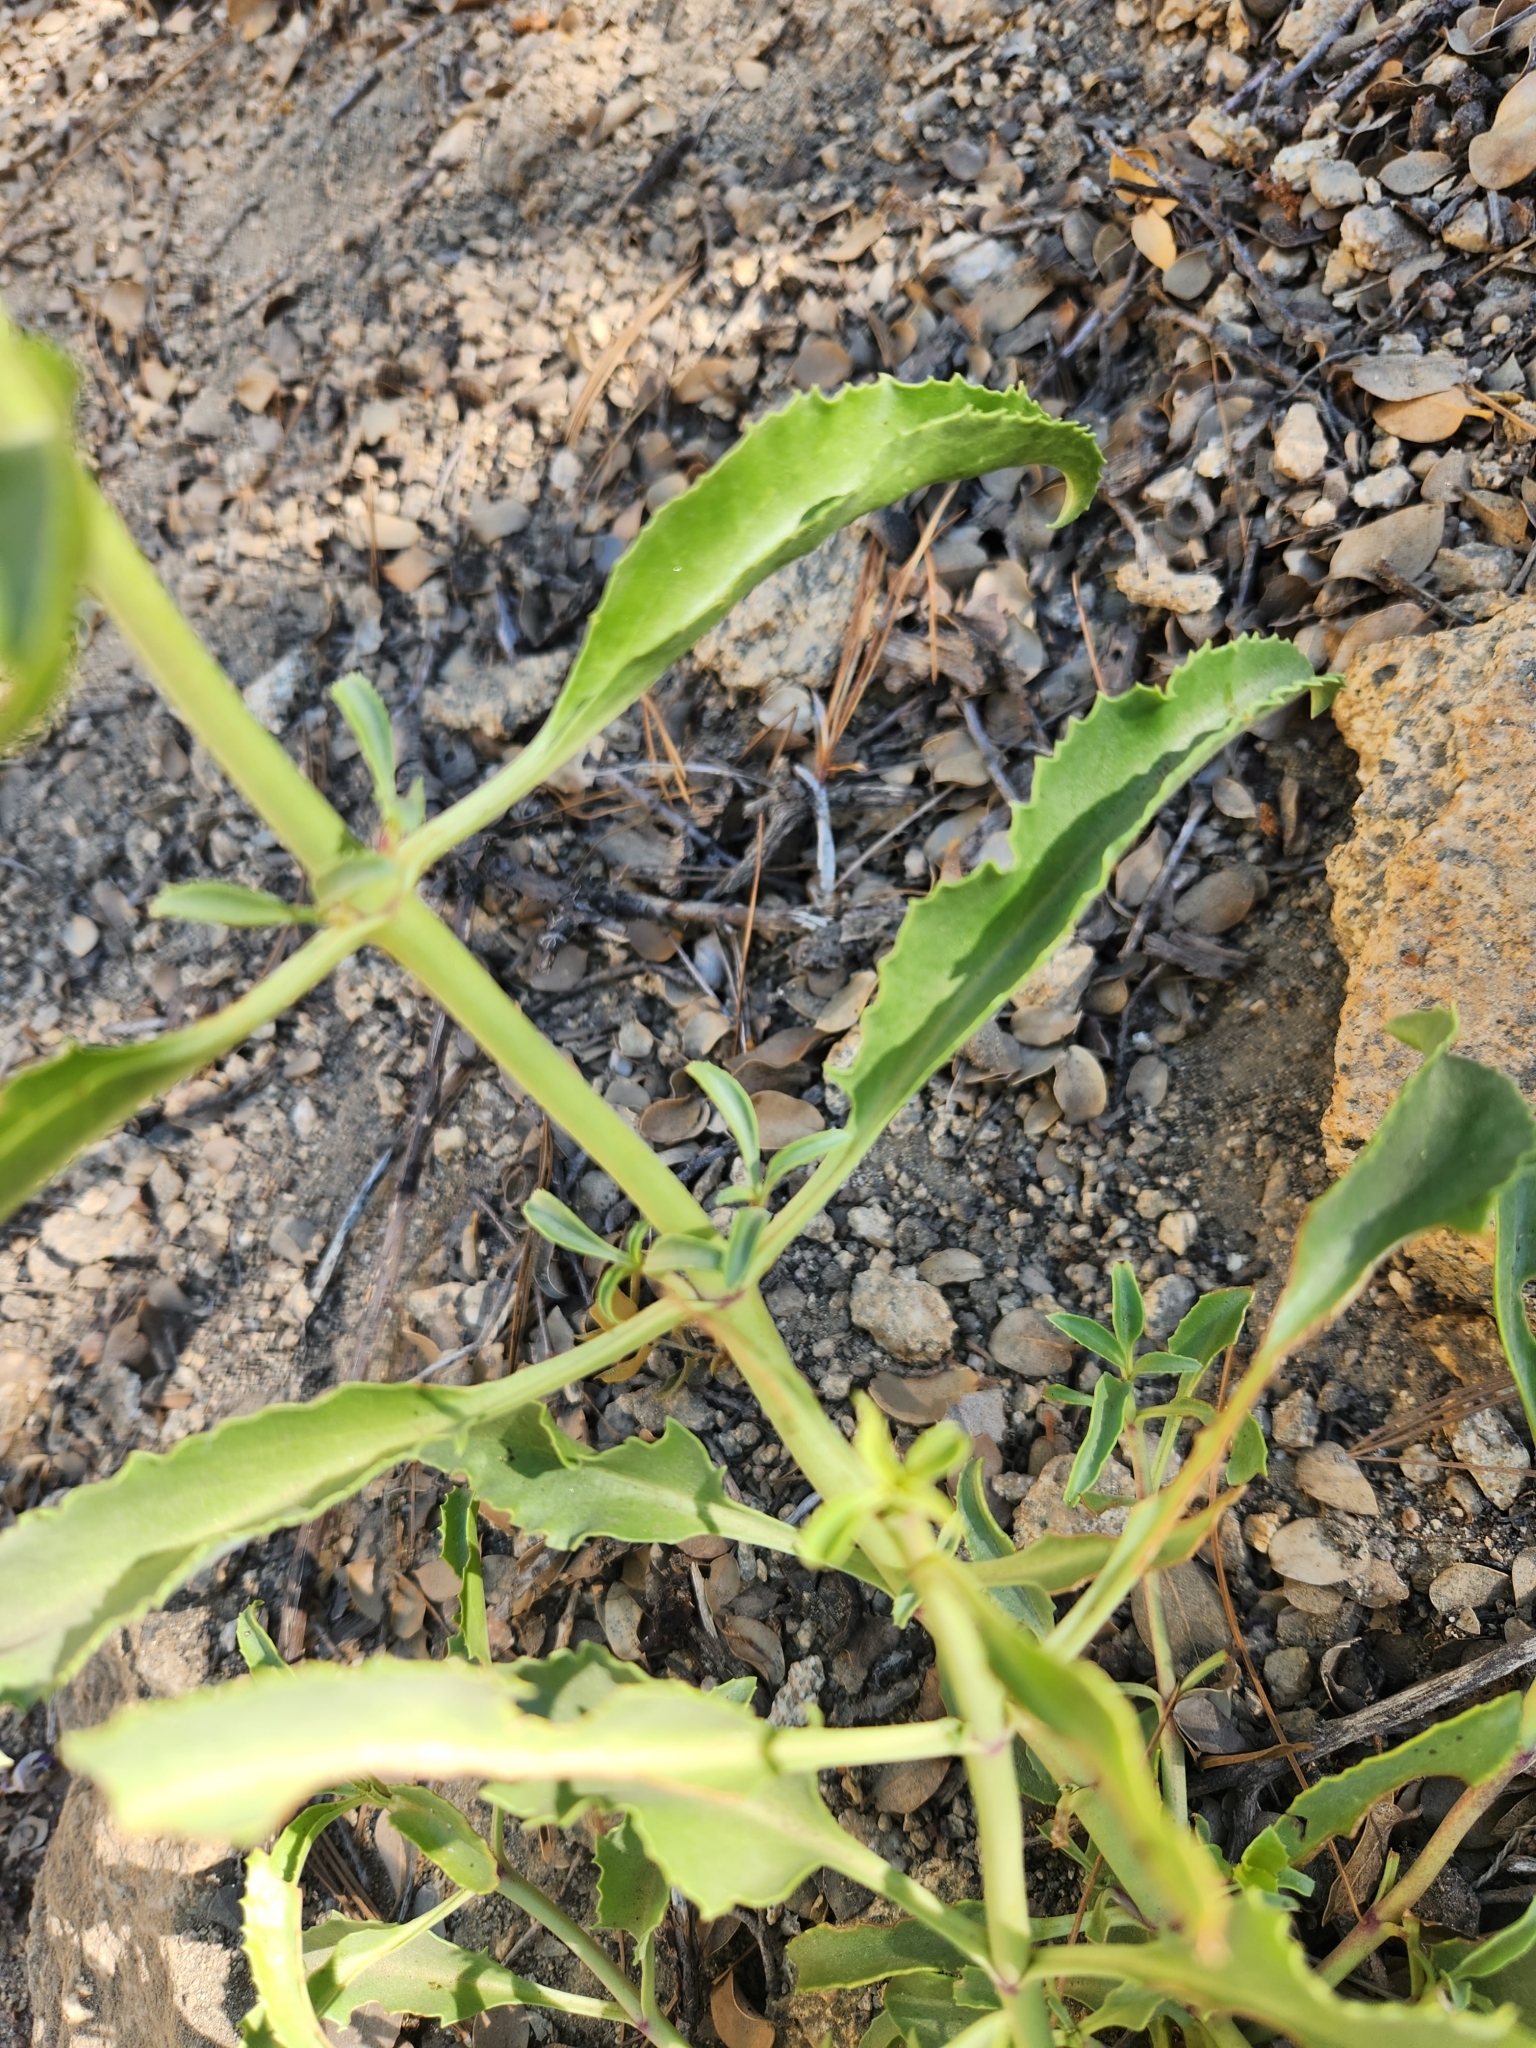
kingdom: Plantae
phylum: Tracheophyta
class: Magnoliopsida
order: Lamiales
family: Plantaginaceae
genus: Penstemon
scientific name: Penstemon grinnellii
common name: Grinnell's beardtongue
